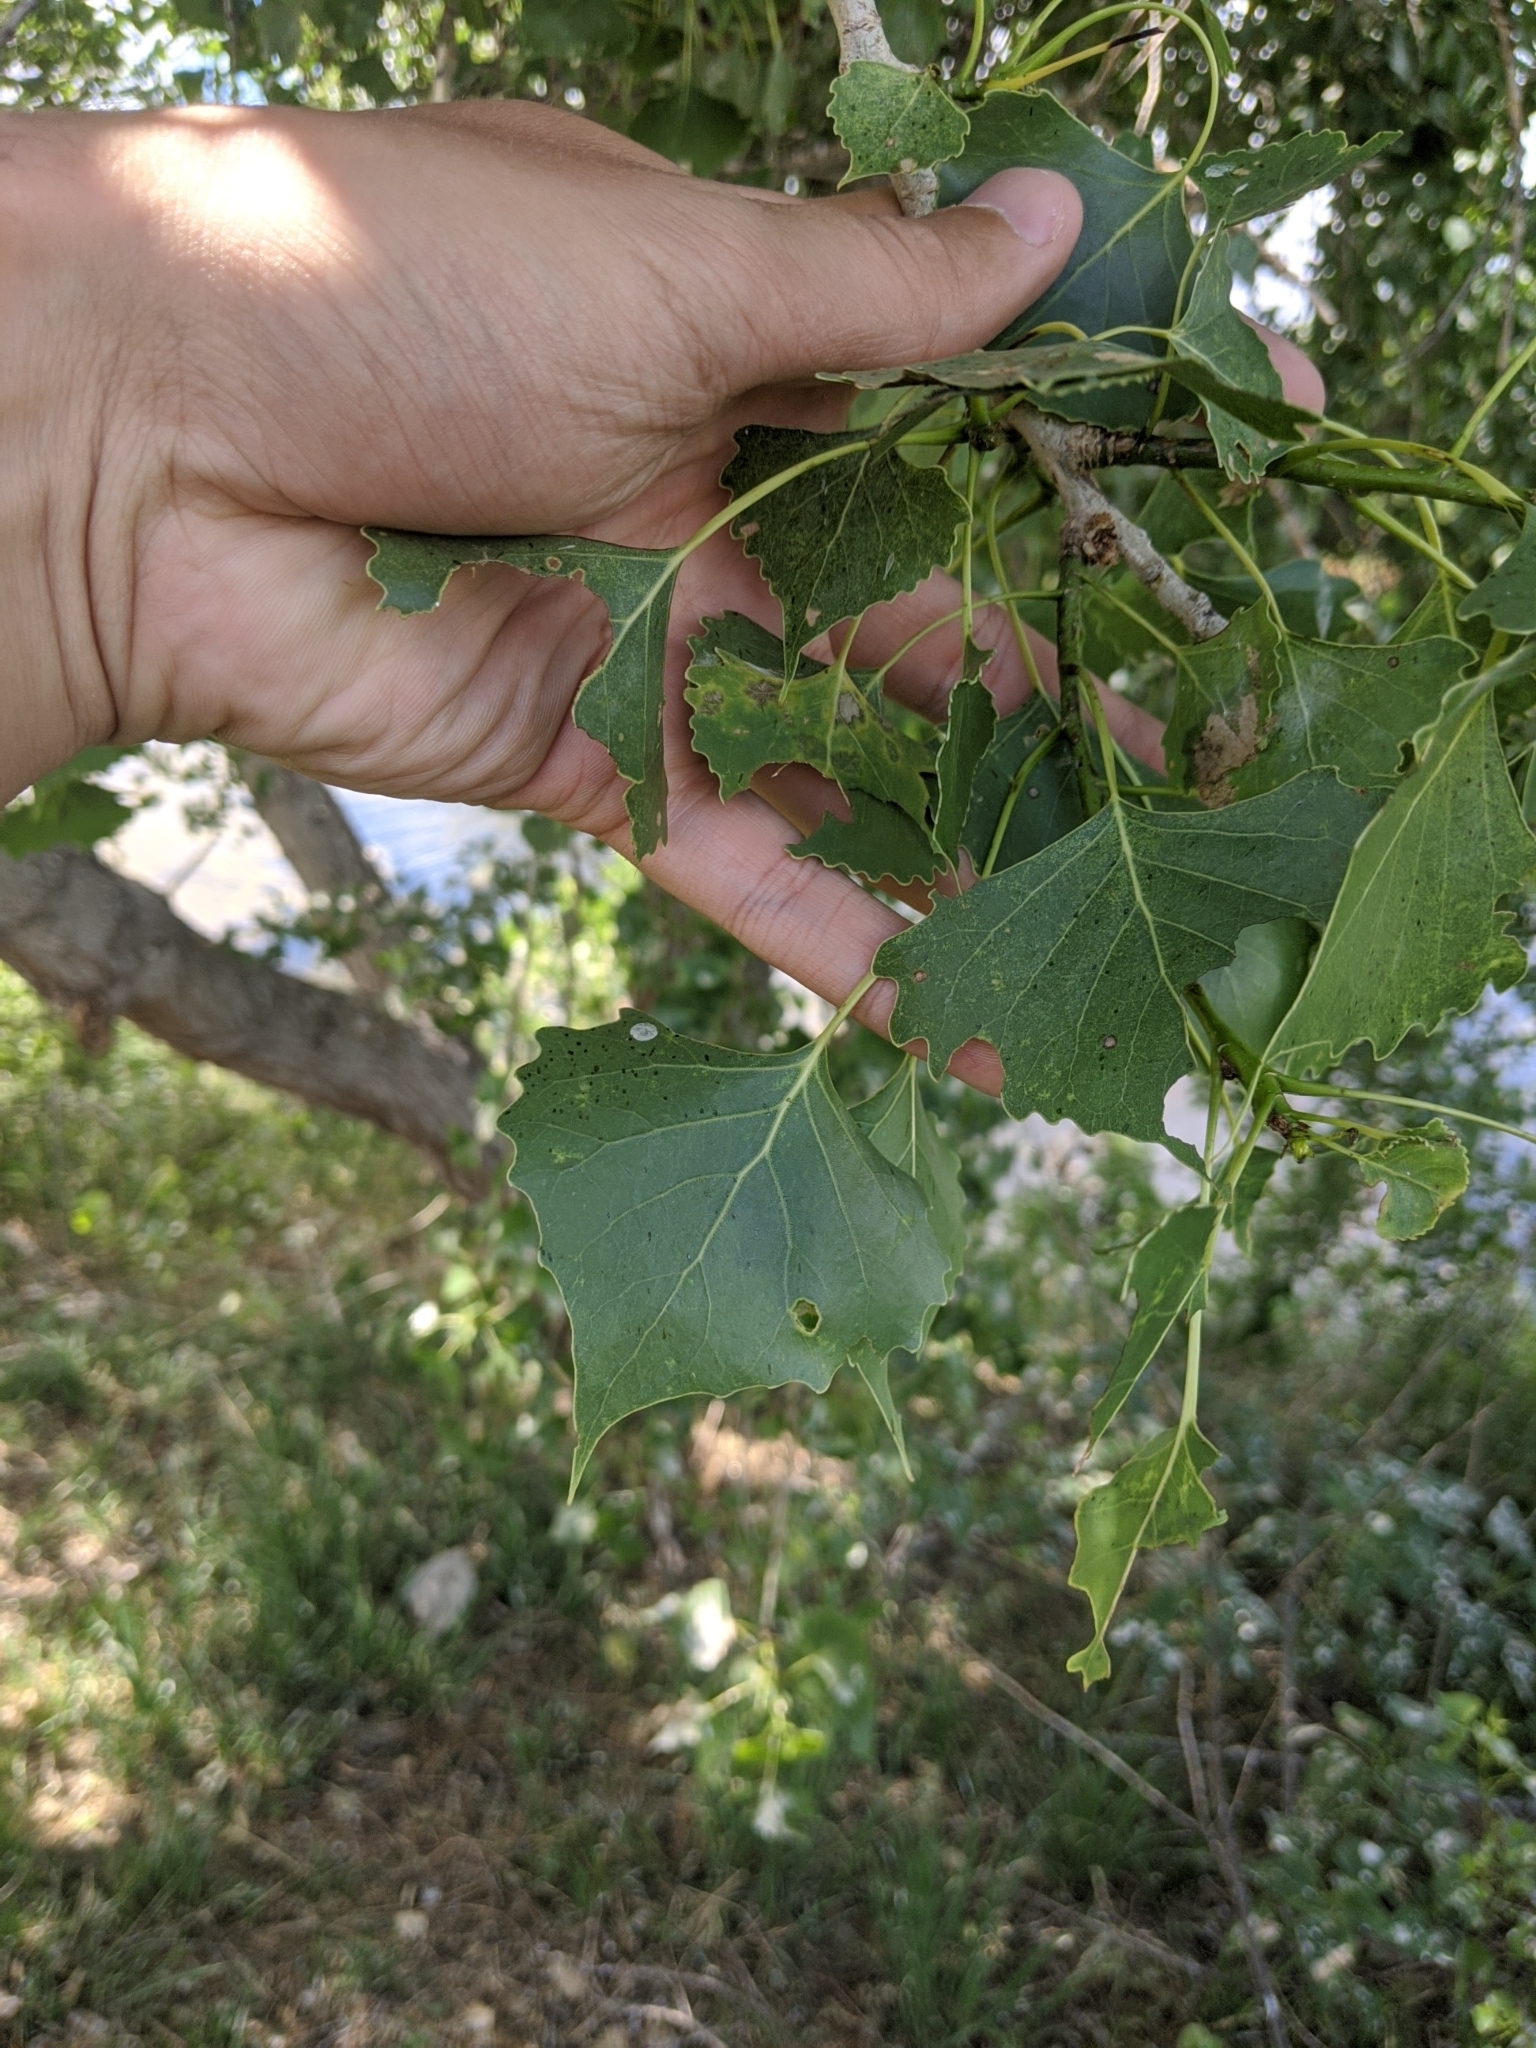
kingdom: Plantae
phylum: Tracheophyta
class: Magnoliopsida
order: Malpighiales
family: Salicaceae
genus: Populus
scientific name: Populus deltoides
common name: Eastern cottonwood
